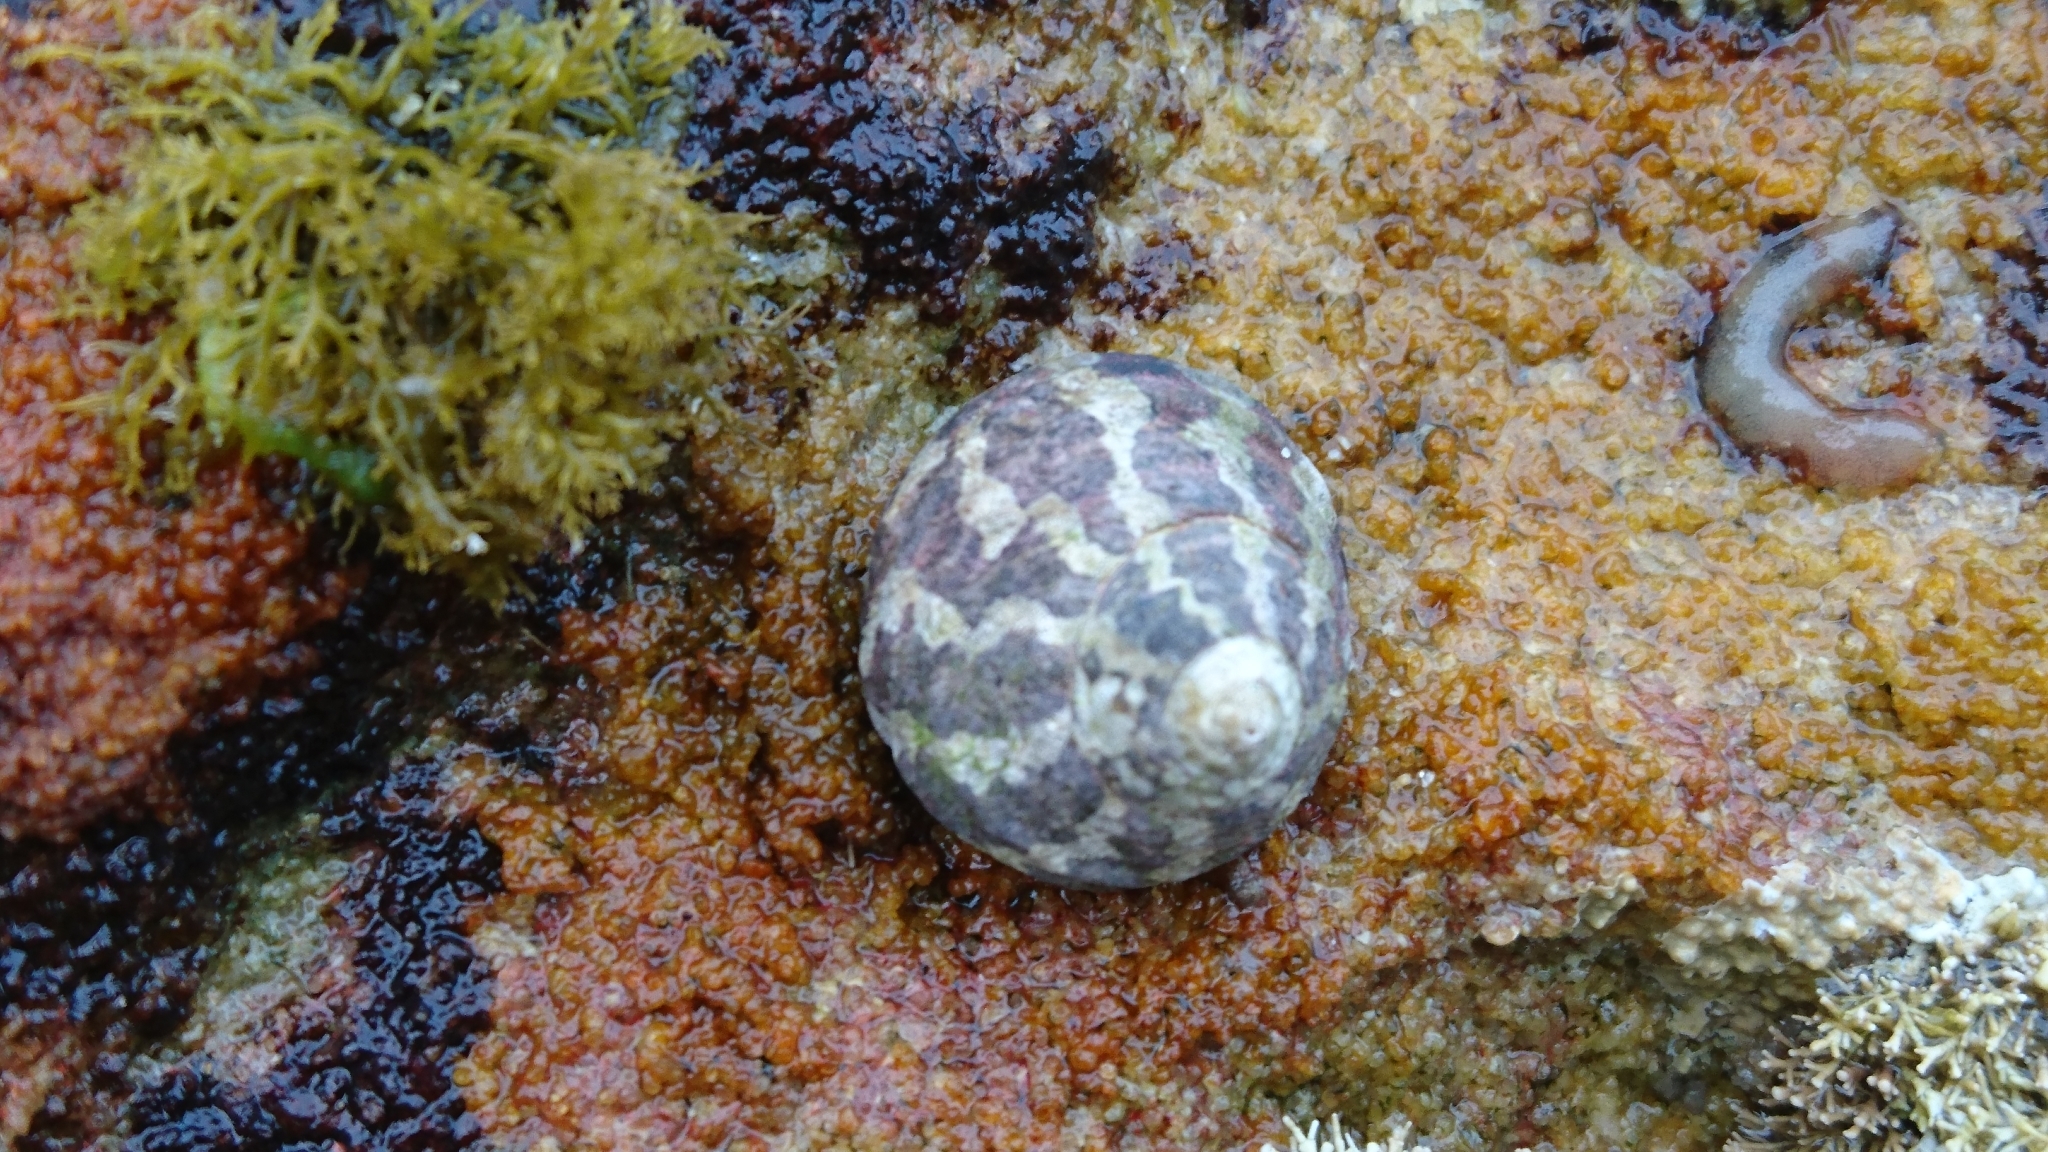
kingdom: Animalia
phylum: Mollusca
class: Gastropoda
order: Trochida
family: Trochidae
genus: Austrocochlea
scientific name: Austrocochlea porcata
